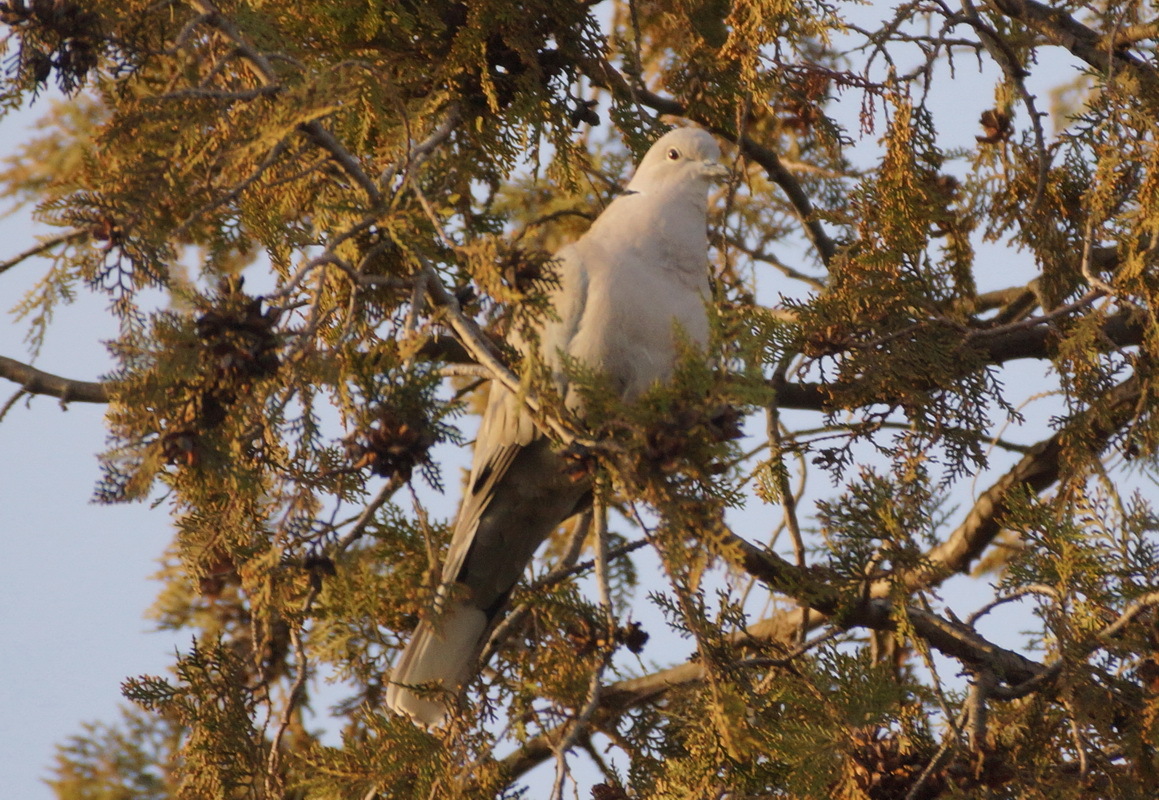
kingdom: Animalia
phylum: Chordata
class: Aves
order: Columbiformes
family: Columbidae
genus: Streptopelia
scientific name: Streptopelia decaocto
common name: Eurasian collared dove
